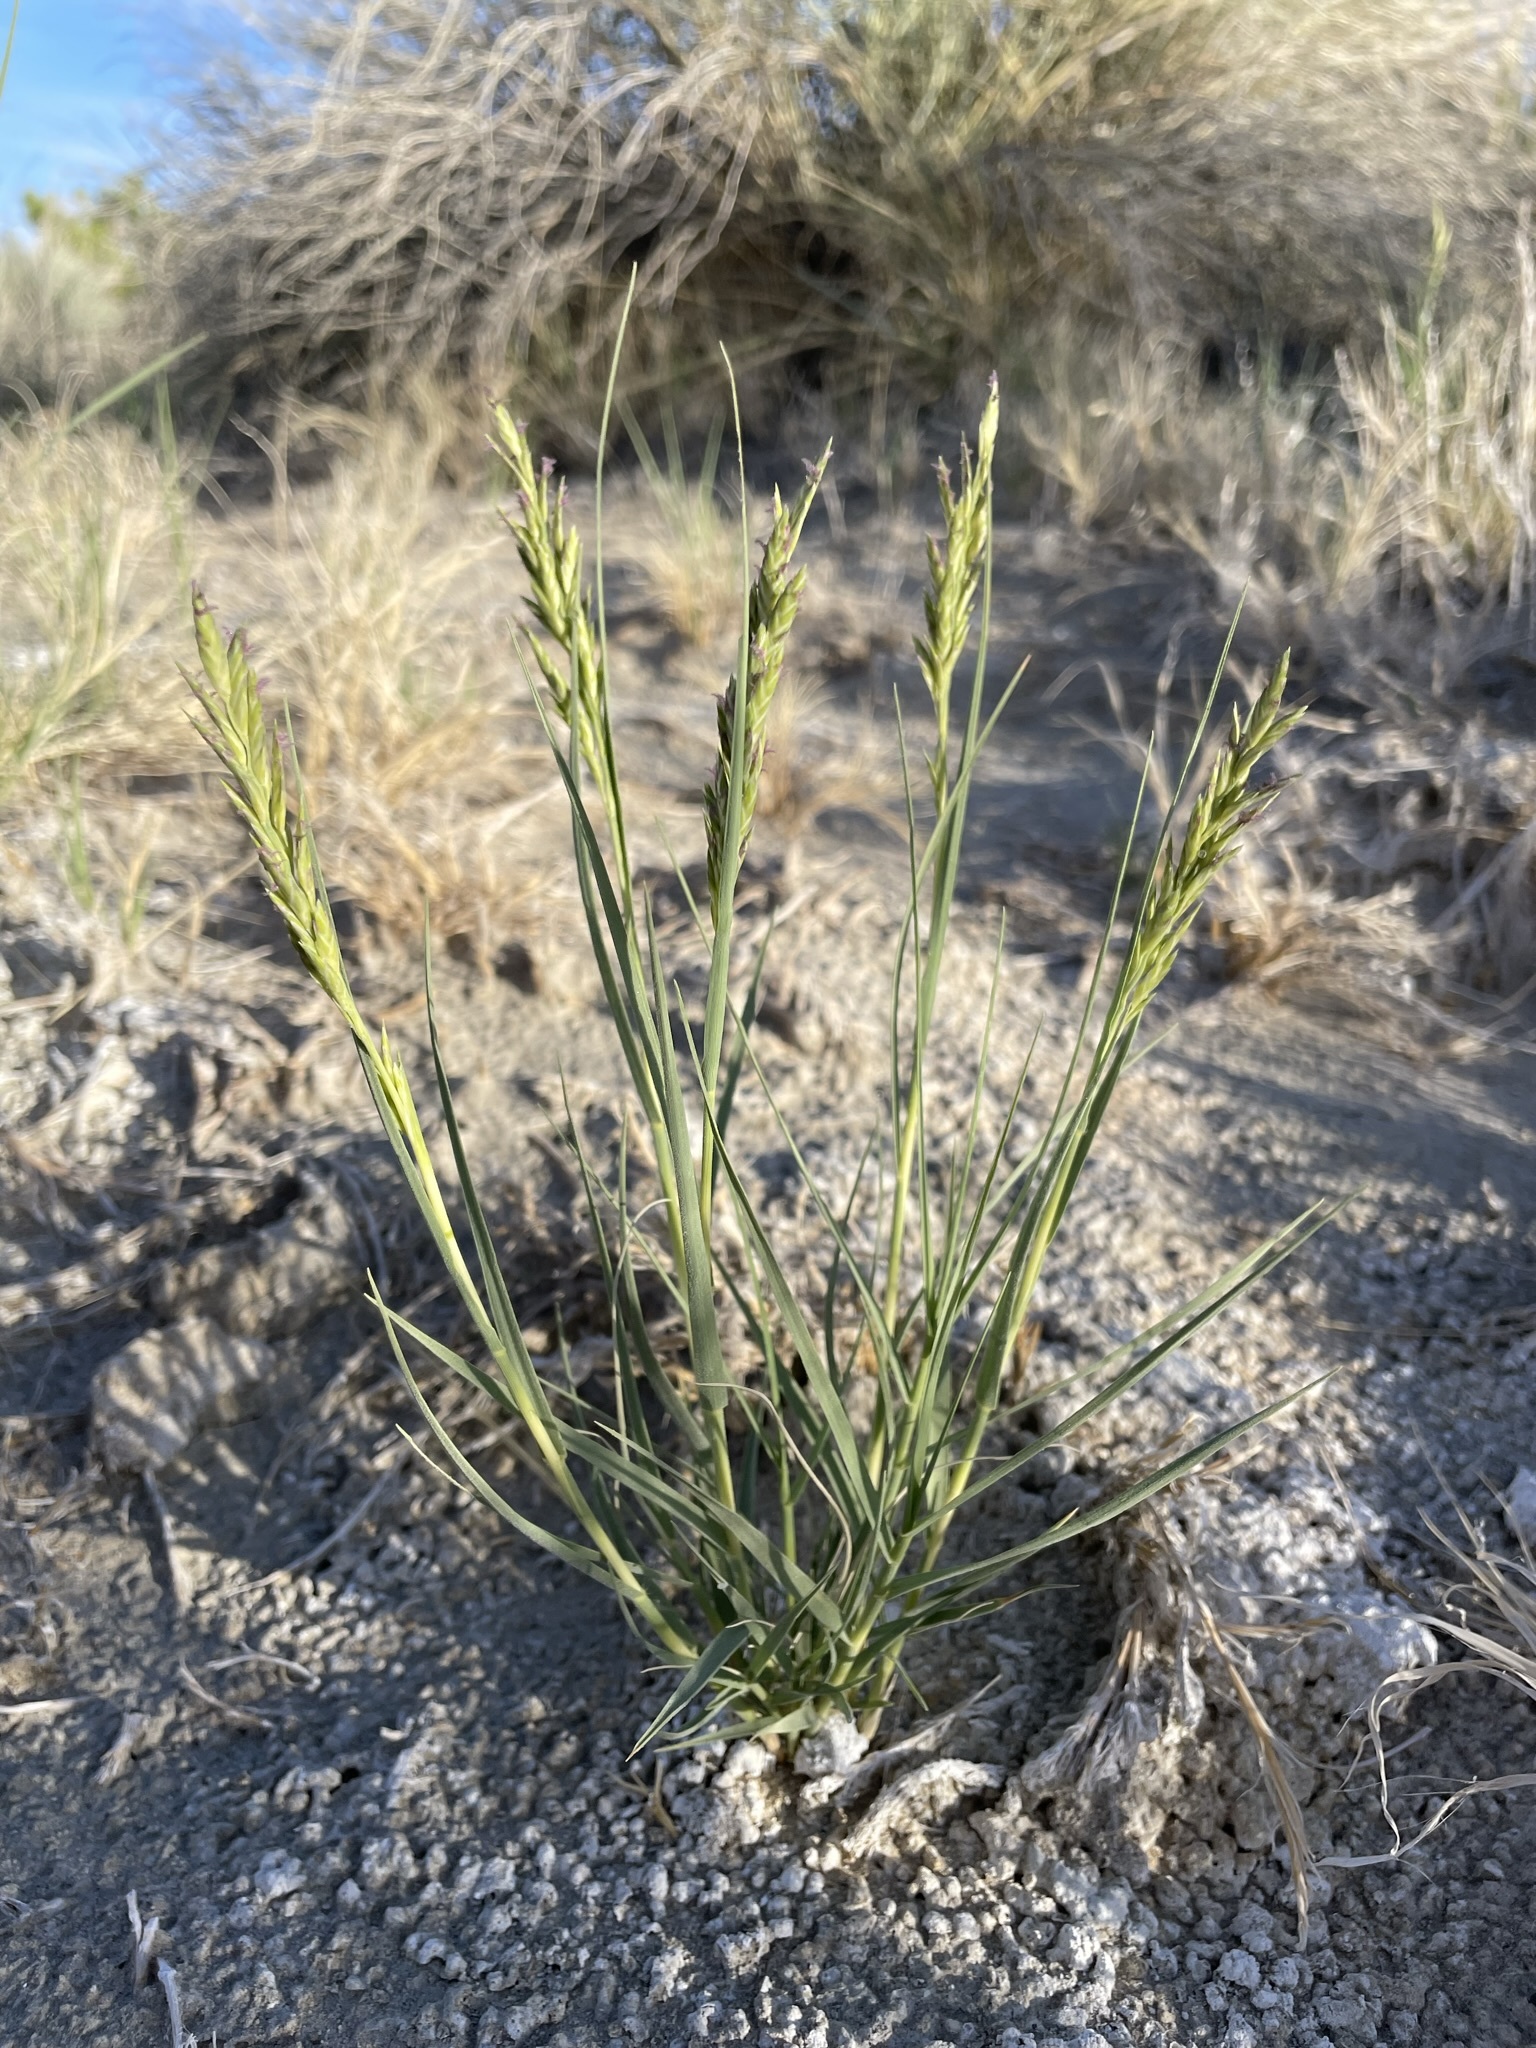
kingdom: Plantae
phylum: Tracheophyta
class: Liliopsida
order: Poales
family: Poaceae
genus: Distichlis
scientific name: Distichlis spicata
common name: Saltgrass
